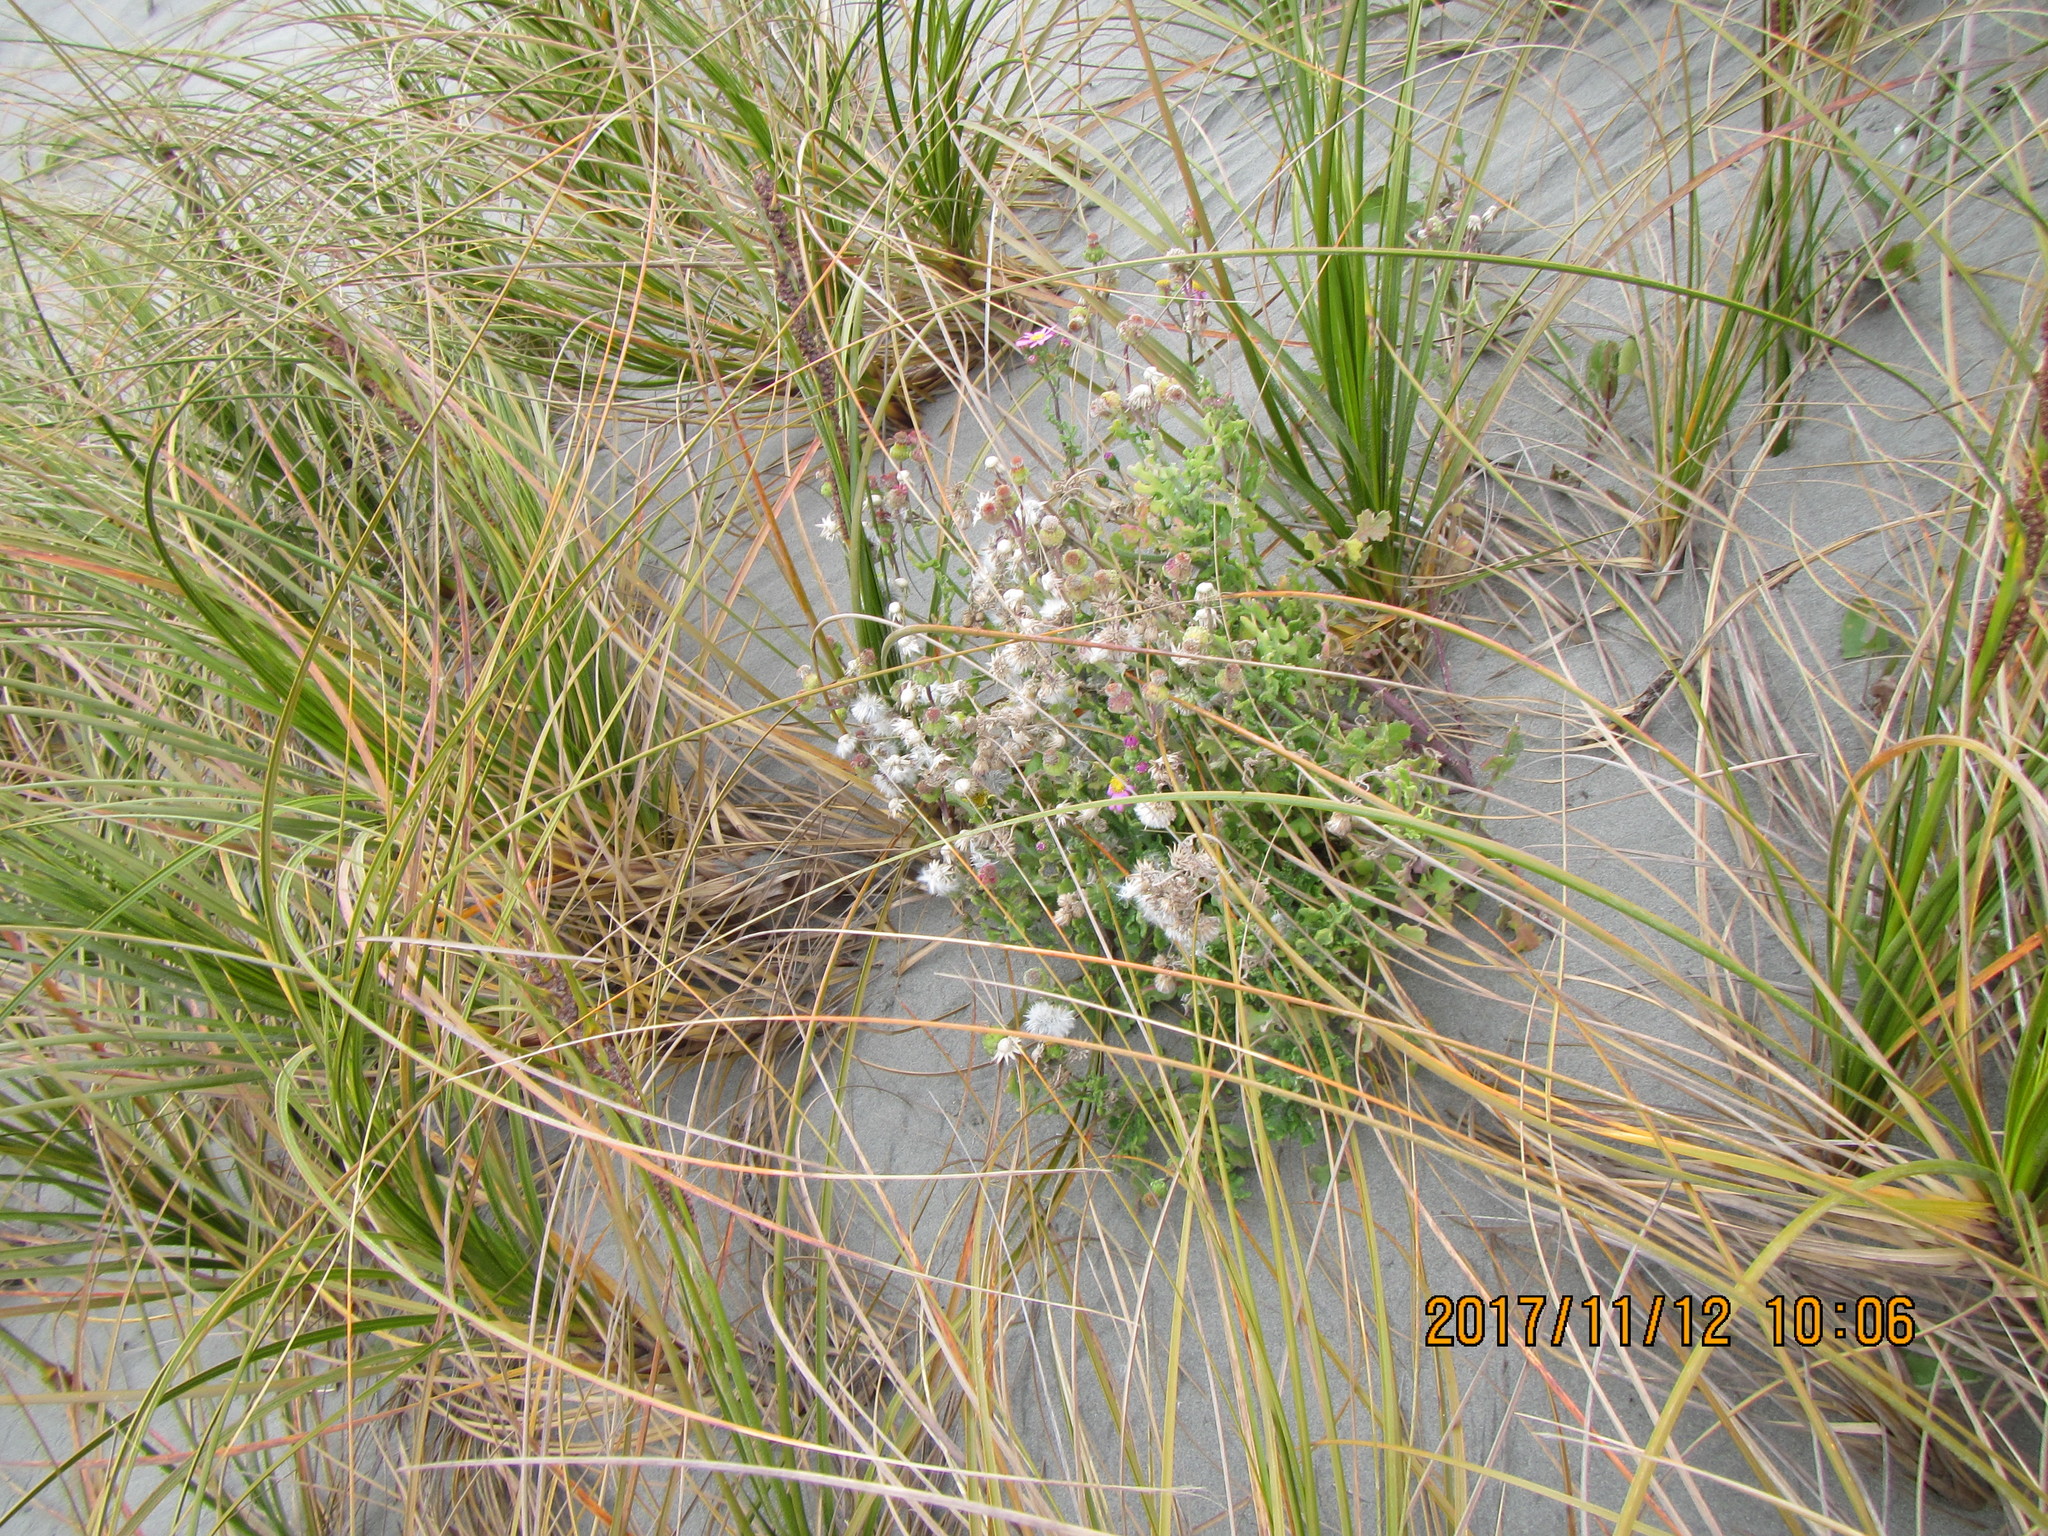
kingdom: Plantae
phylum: Tracheophyta
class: Magnoliopsida
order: Asterales
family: Asteraceae
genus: Senecio
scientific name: Senecio elegans
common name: Purple groundsel
